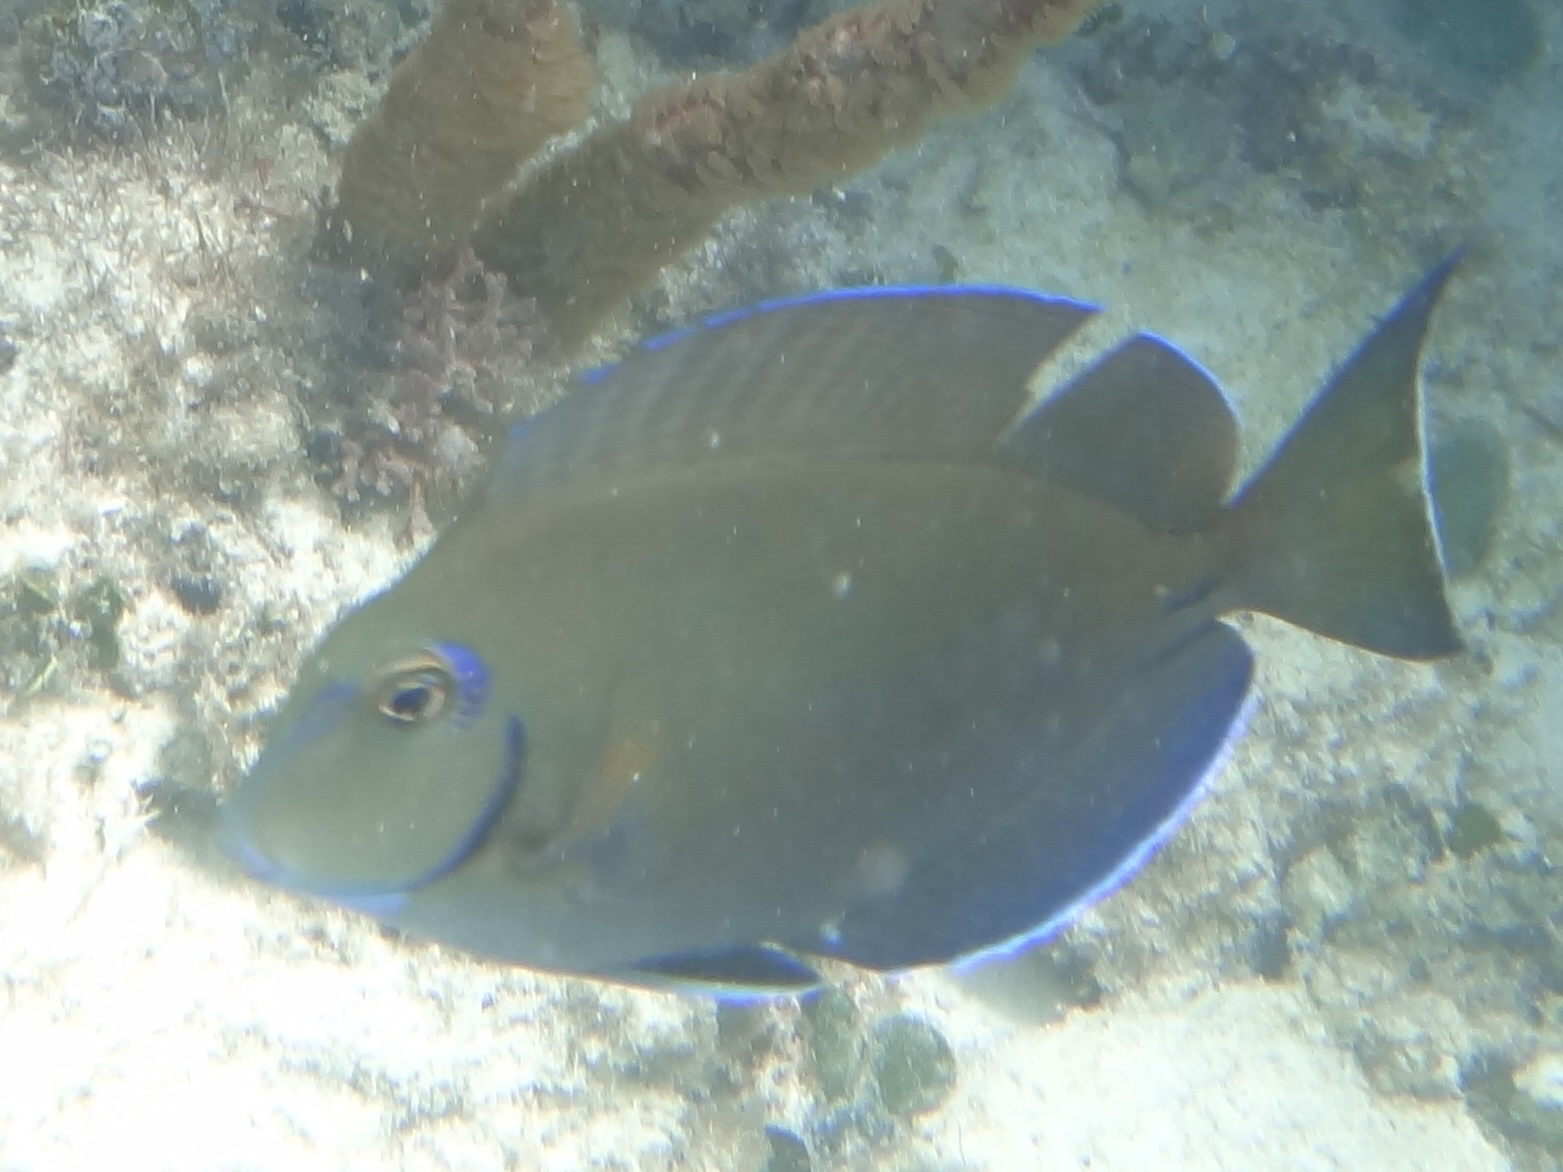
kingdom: Animalia
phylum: Chordata
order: Perciformes
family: Acanthuridae
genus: Acanthurus
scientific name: Acanthurus bahianus
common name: Ocean surgeon
